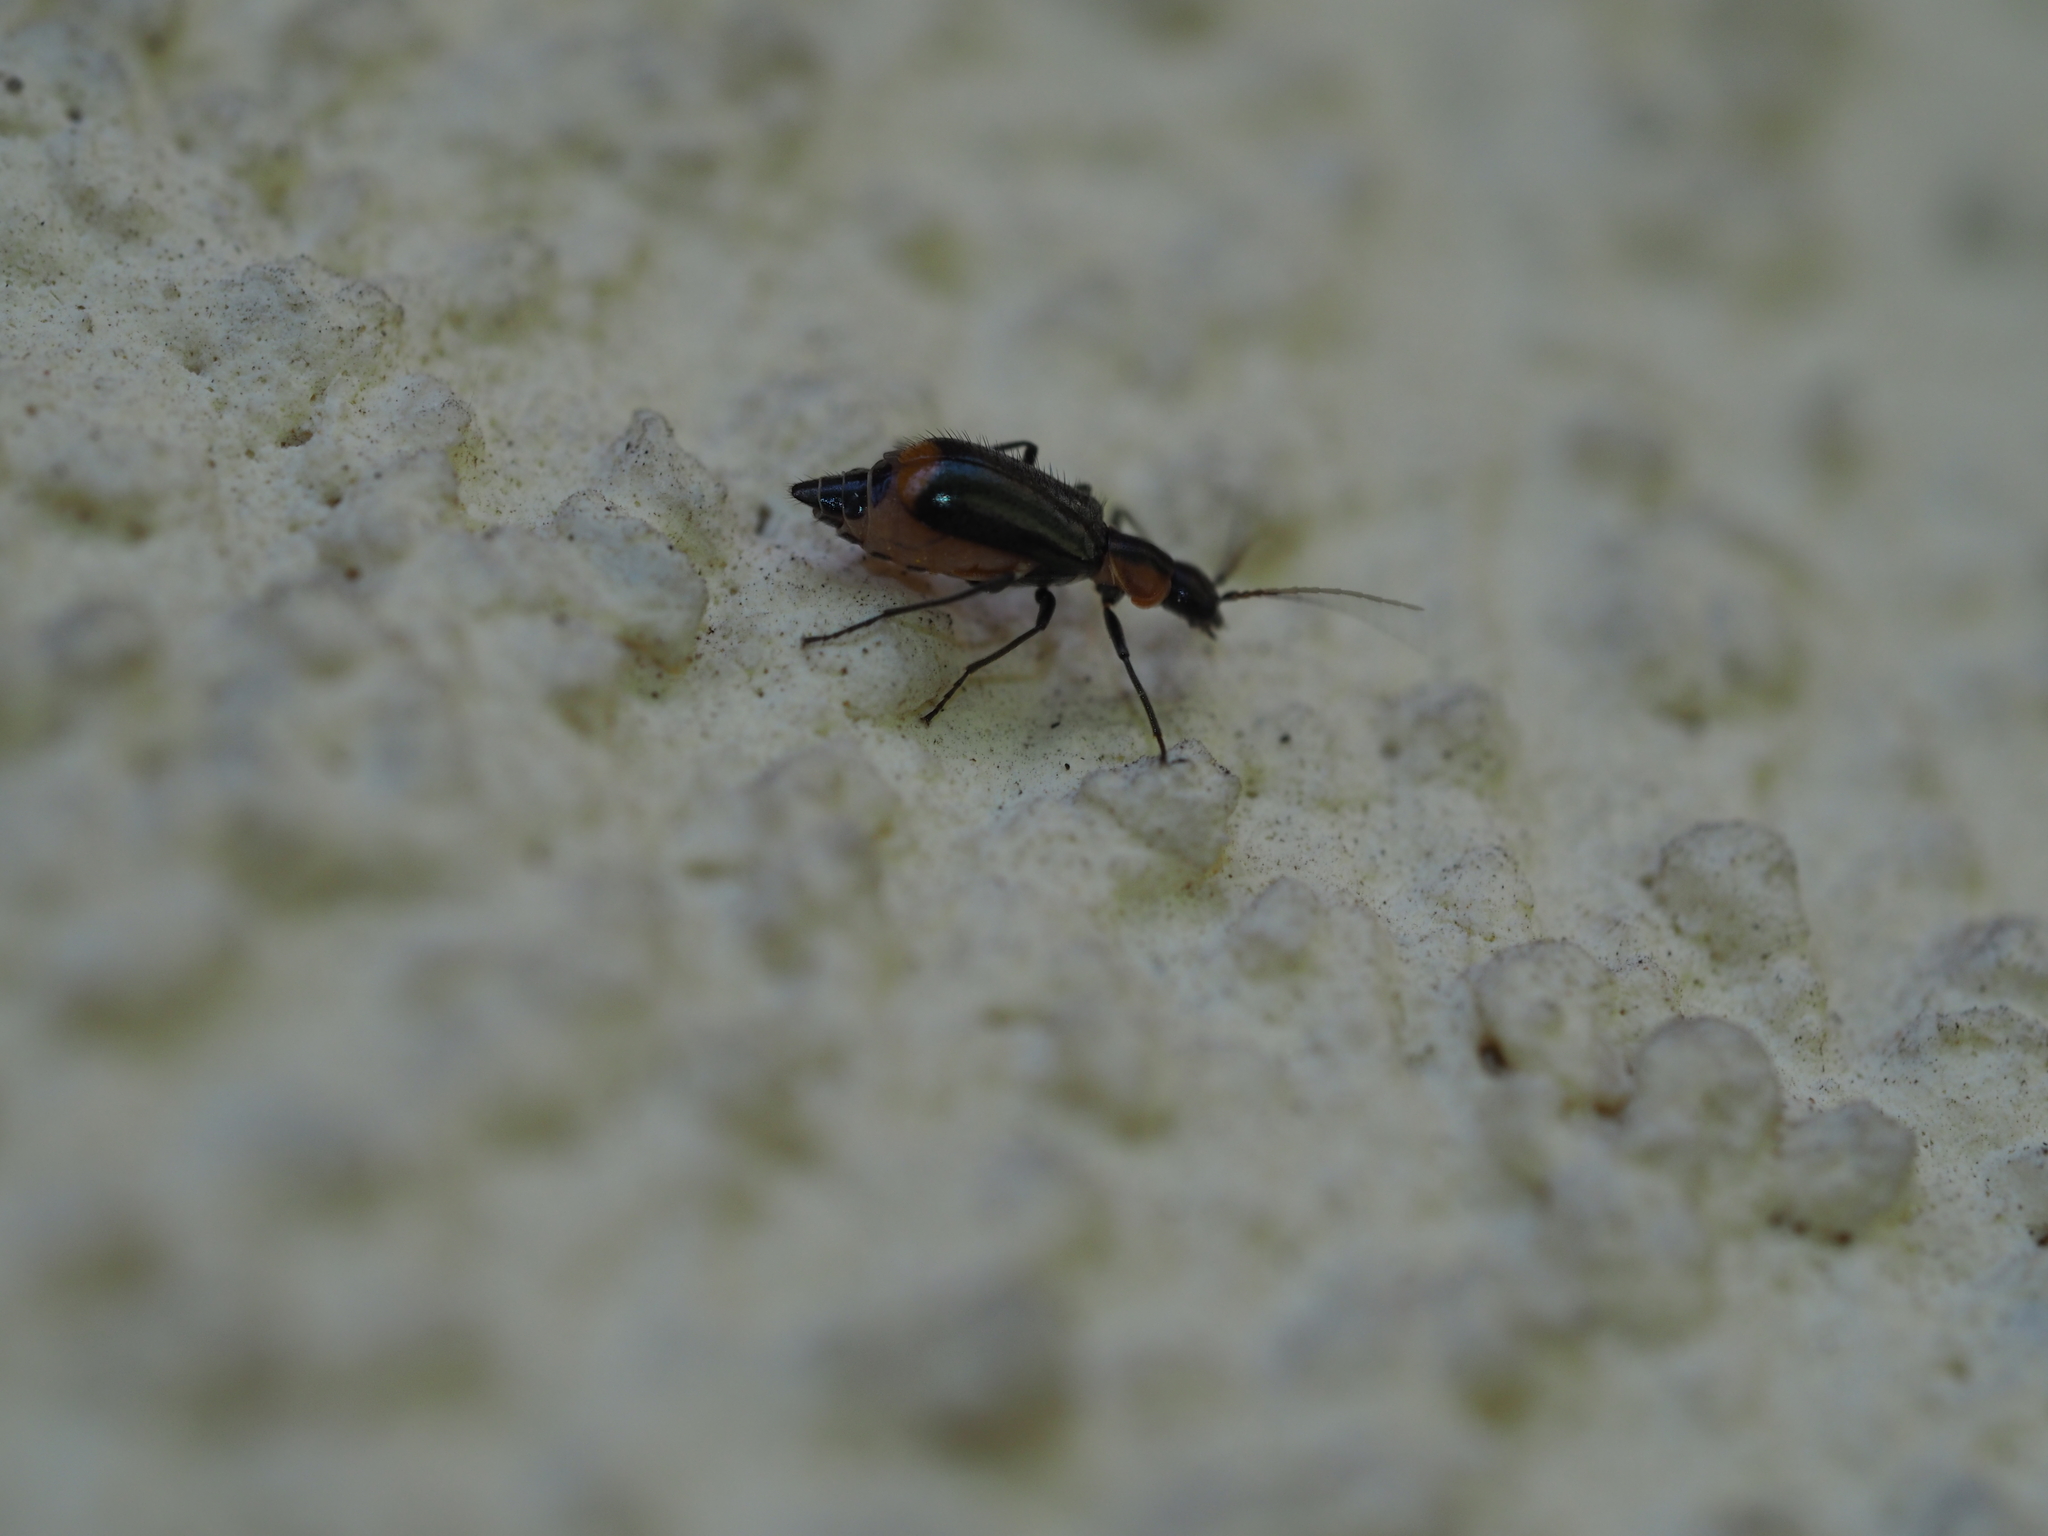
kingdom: Animalia
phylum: Arthropoda
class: Insecta
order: Coleoptera
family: Melyridae
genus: Axinotarsus
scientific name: Axinotarsus pulicarius
